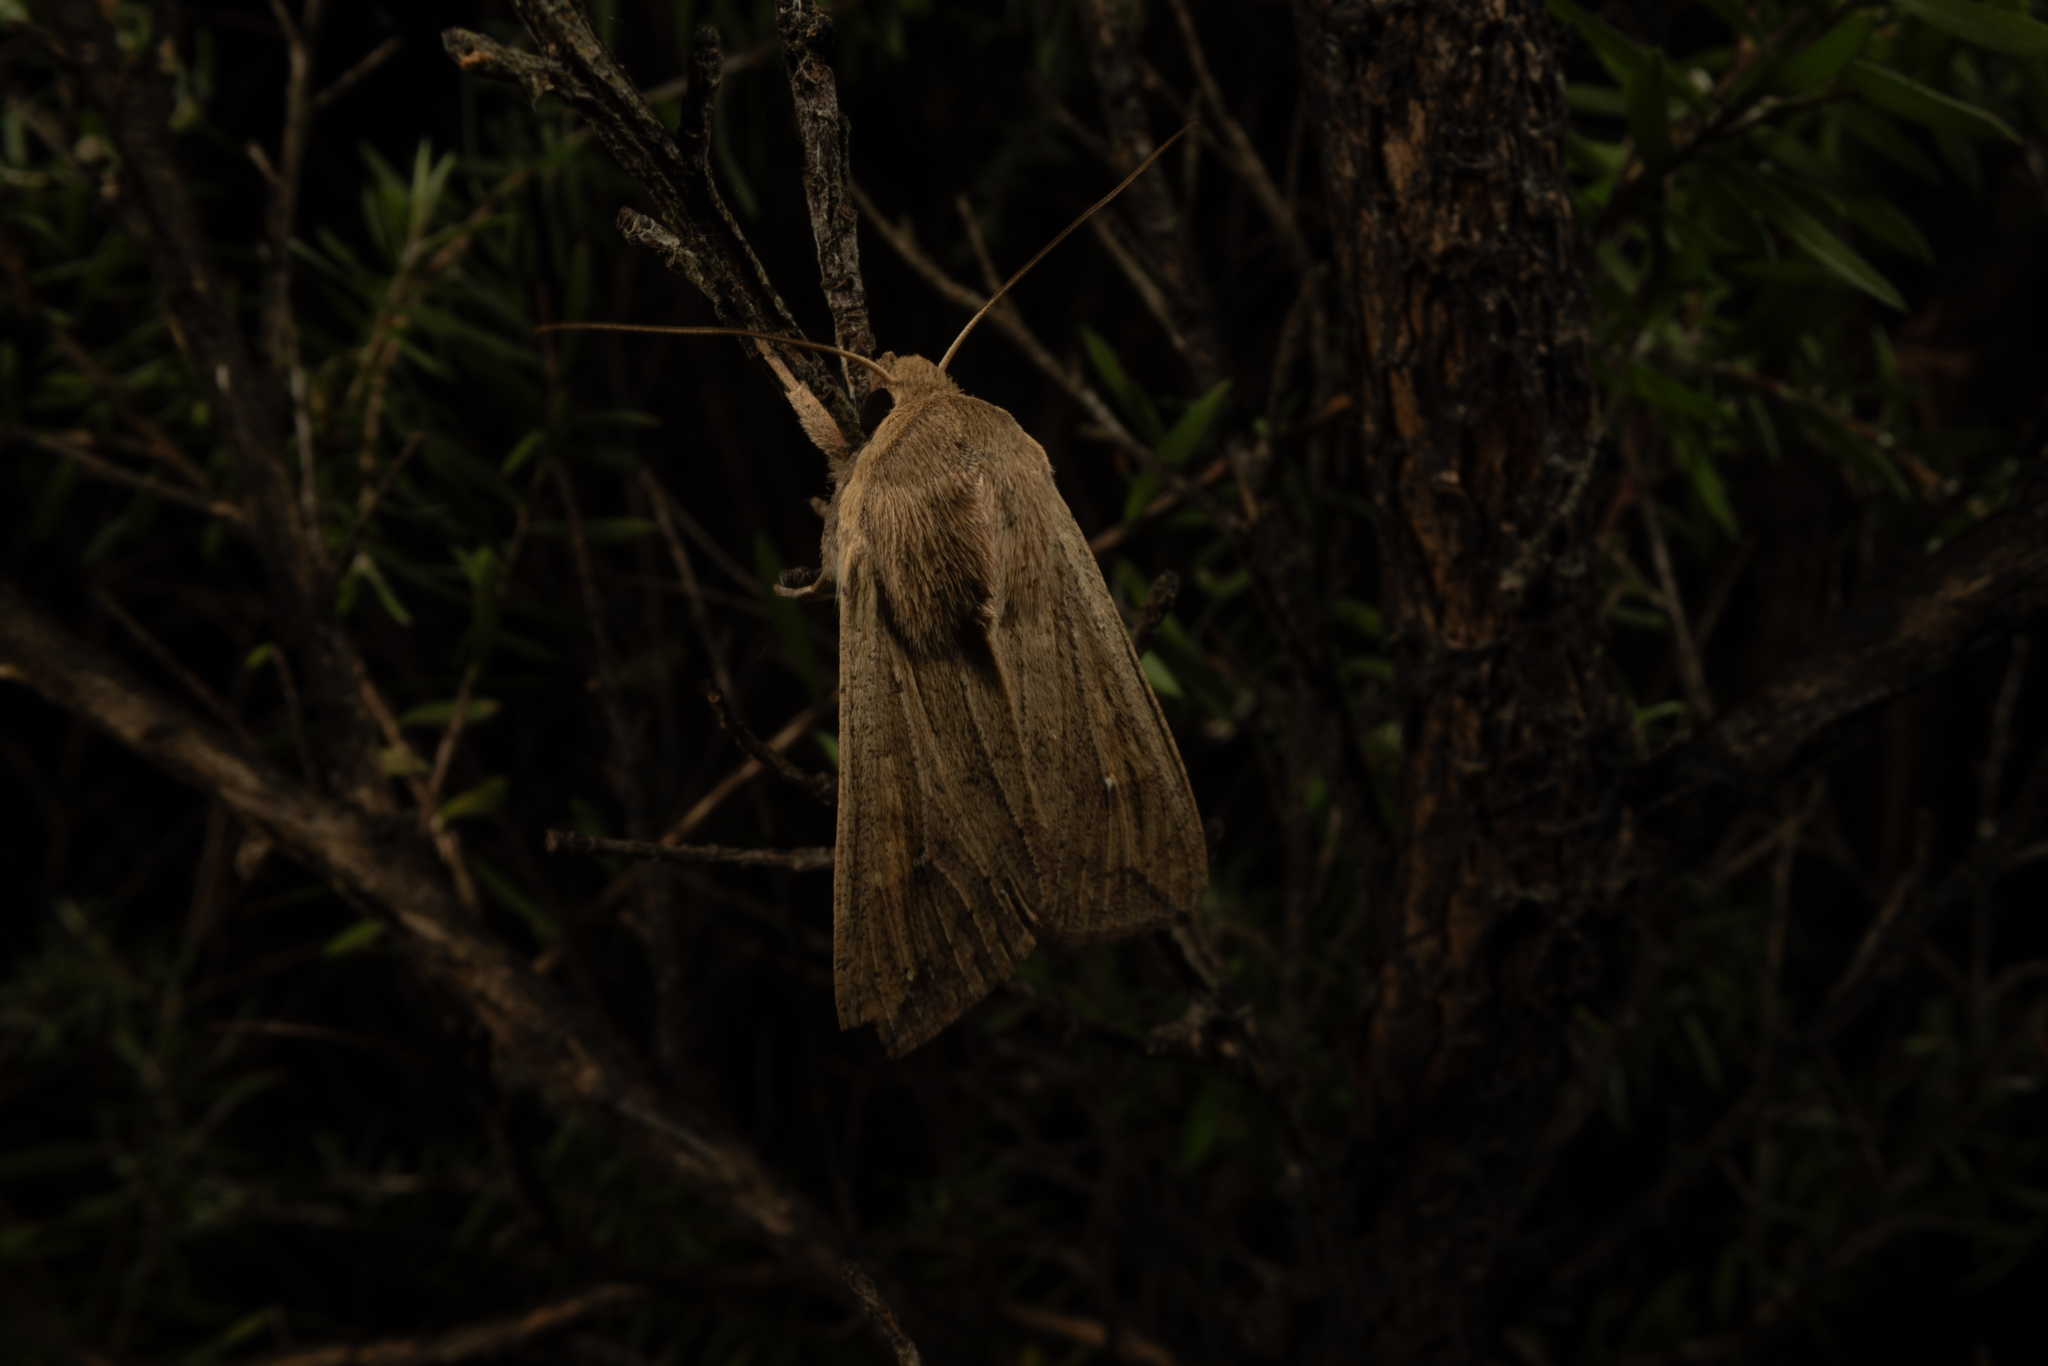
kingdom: Animalia
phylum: Arthropoda
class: Insecta
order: Lepidoptera
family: Noctuidae
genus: Mythimna
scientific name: Mythimna separata
